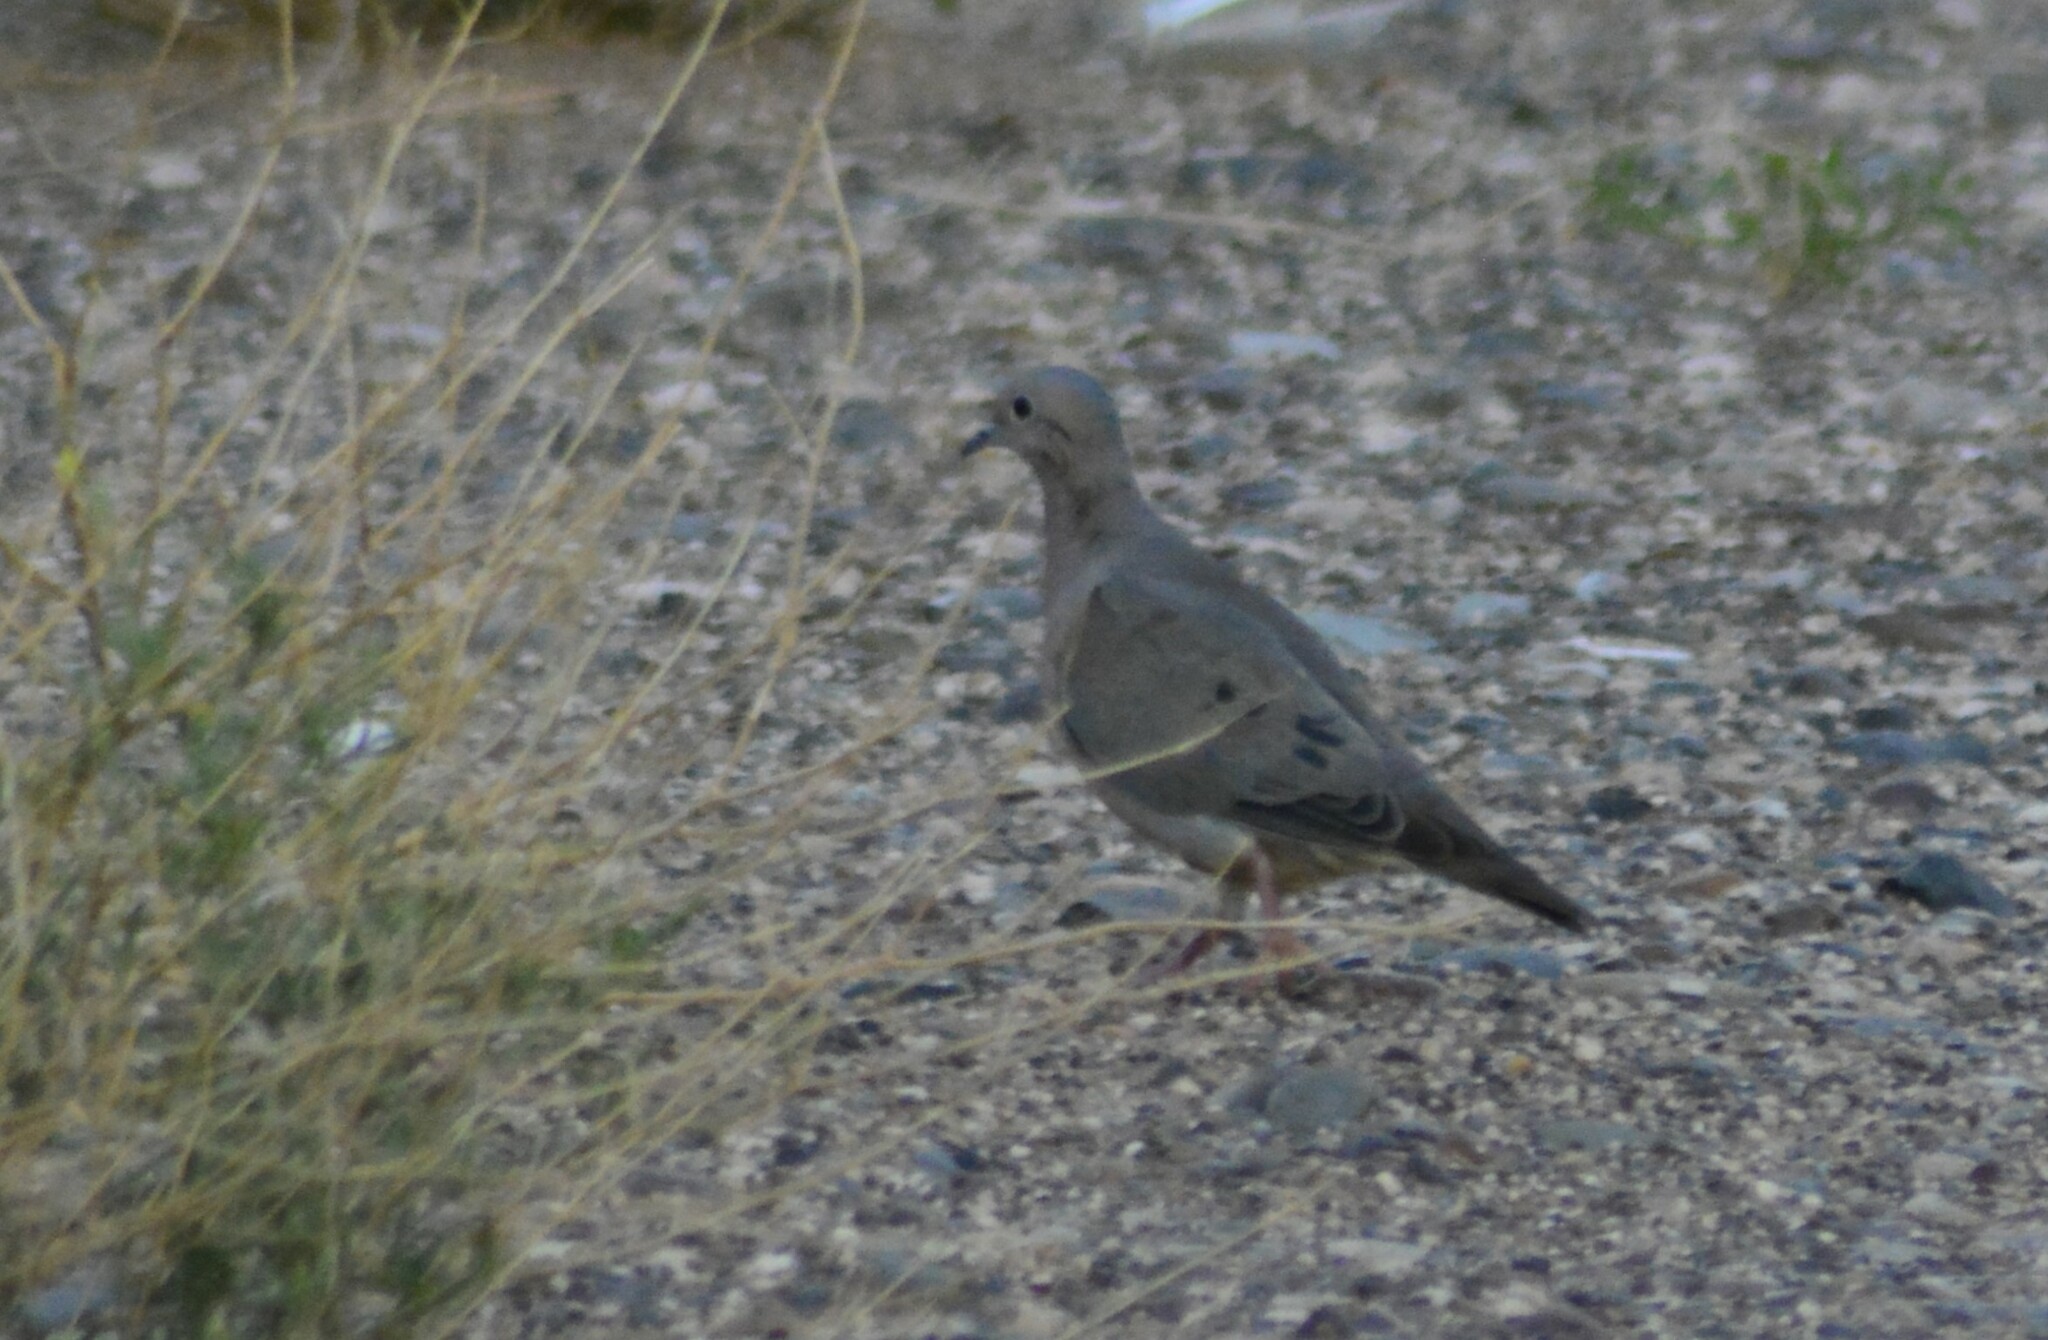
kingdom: Animalia
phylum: Chordata
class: Aves
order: Columbiformes
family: Columbidae
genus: Zenaida
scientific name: Zenaida auriculata
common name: Eared dove
